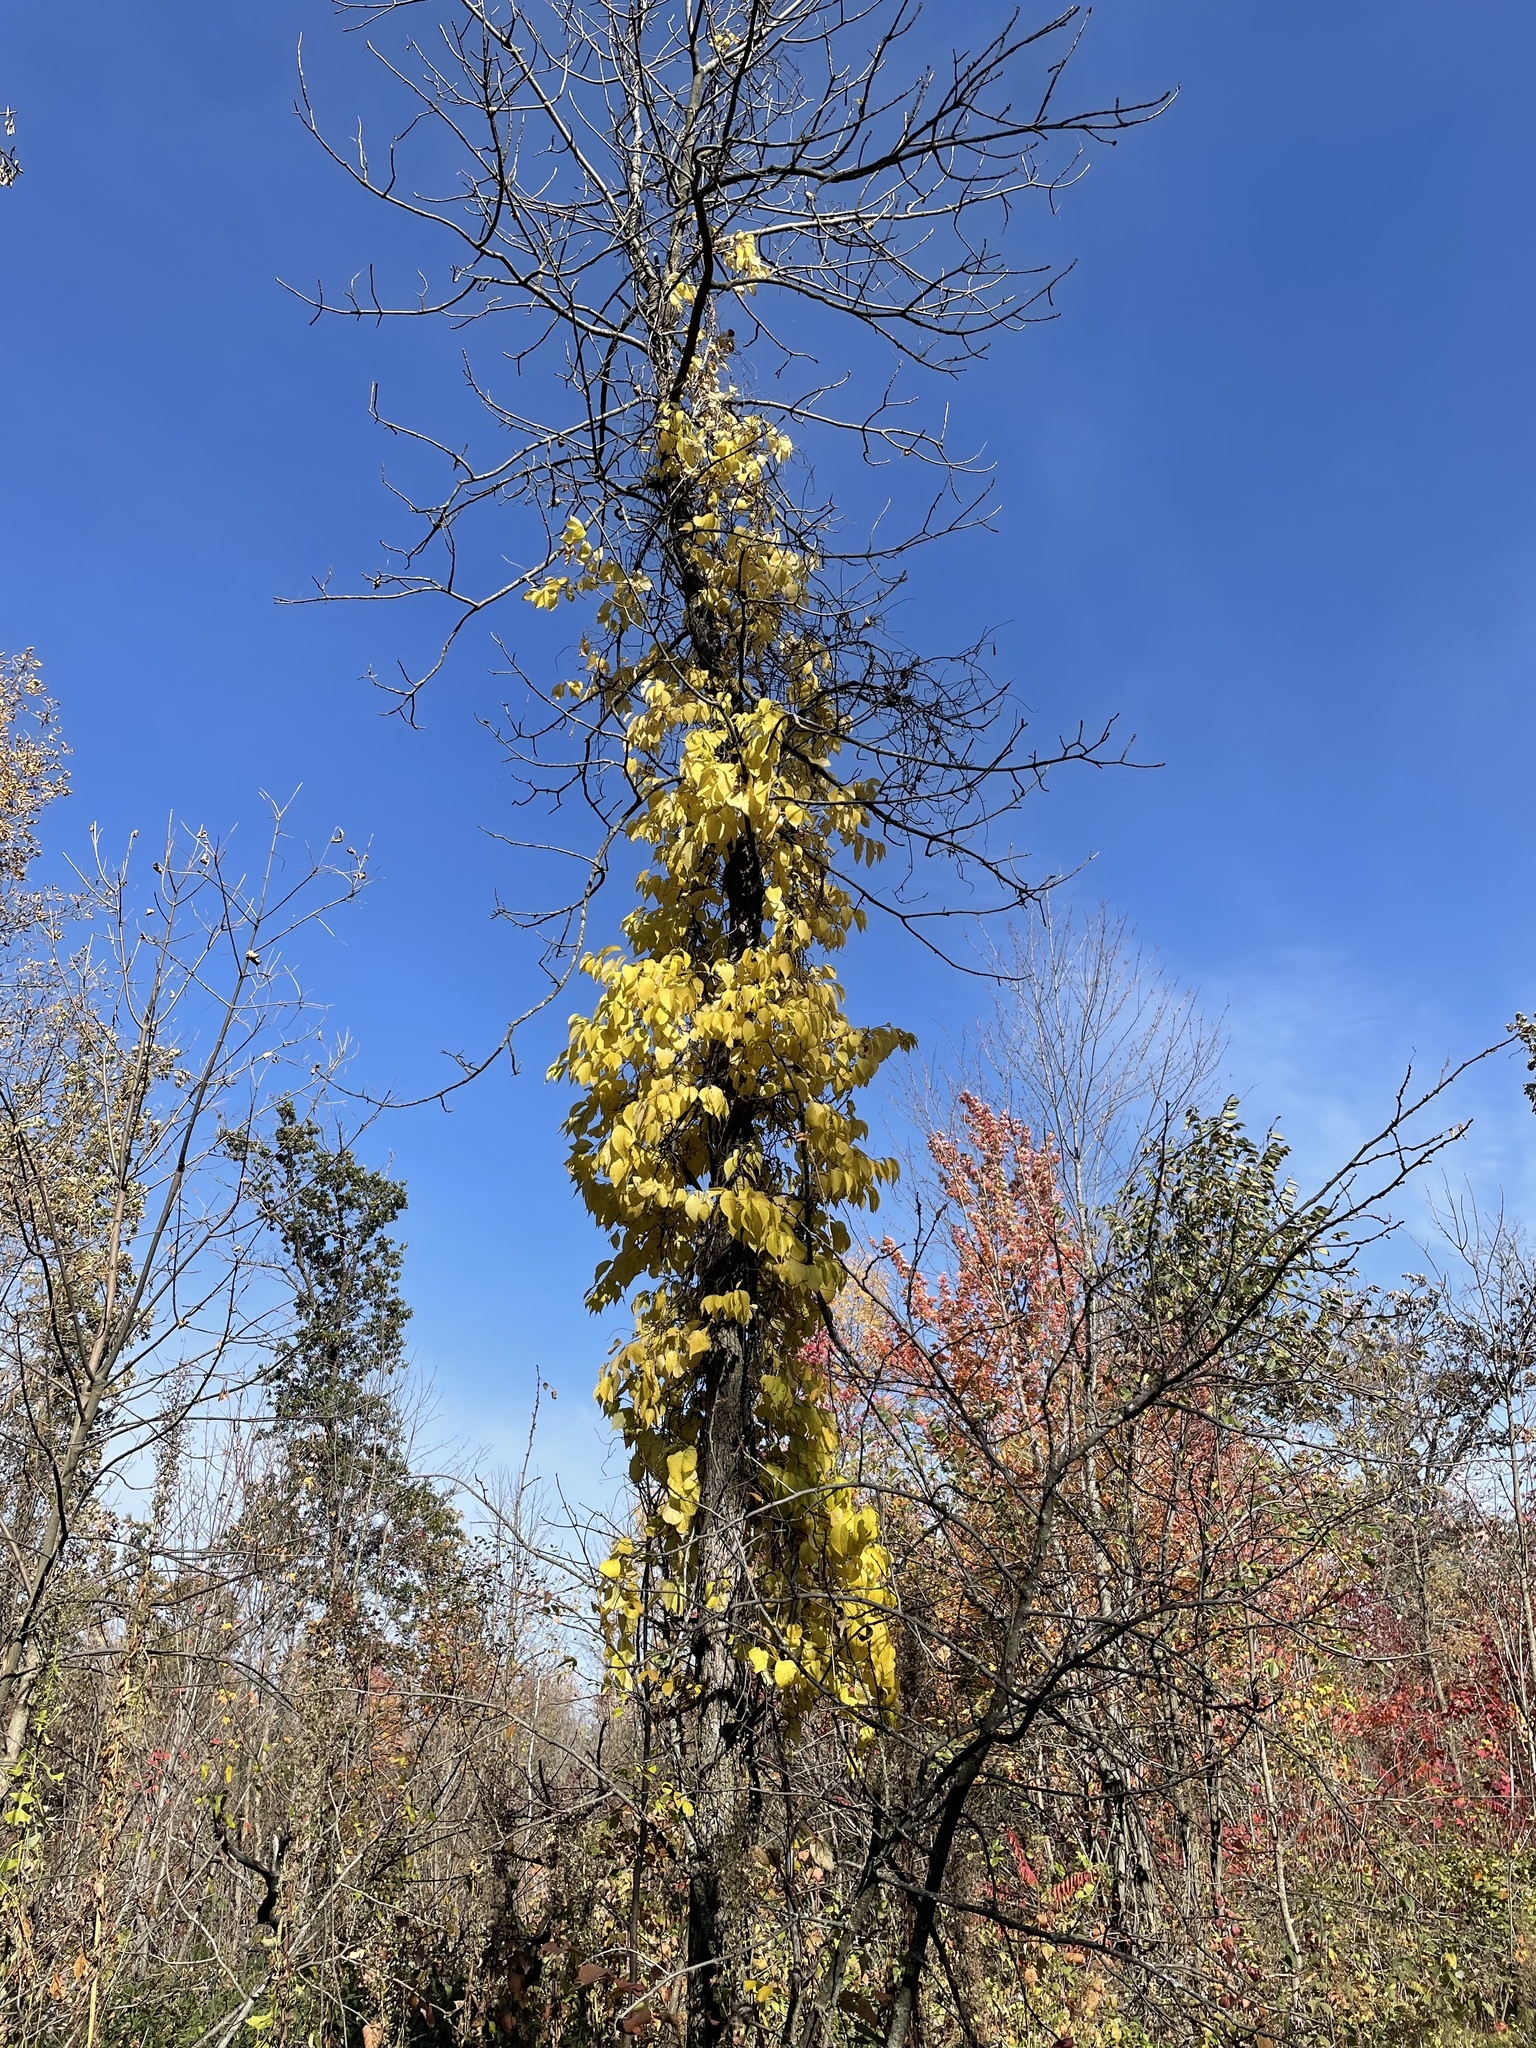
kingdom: Plantae
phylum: Tracheophyta
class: Magnoliopsida
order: Celastrales
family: Celastraceae
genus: Celastrus
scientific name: Celastrus scandens
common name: American bittersweet
